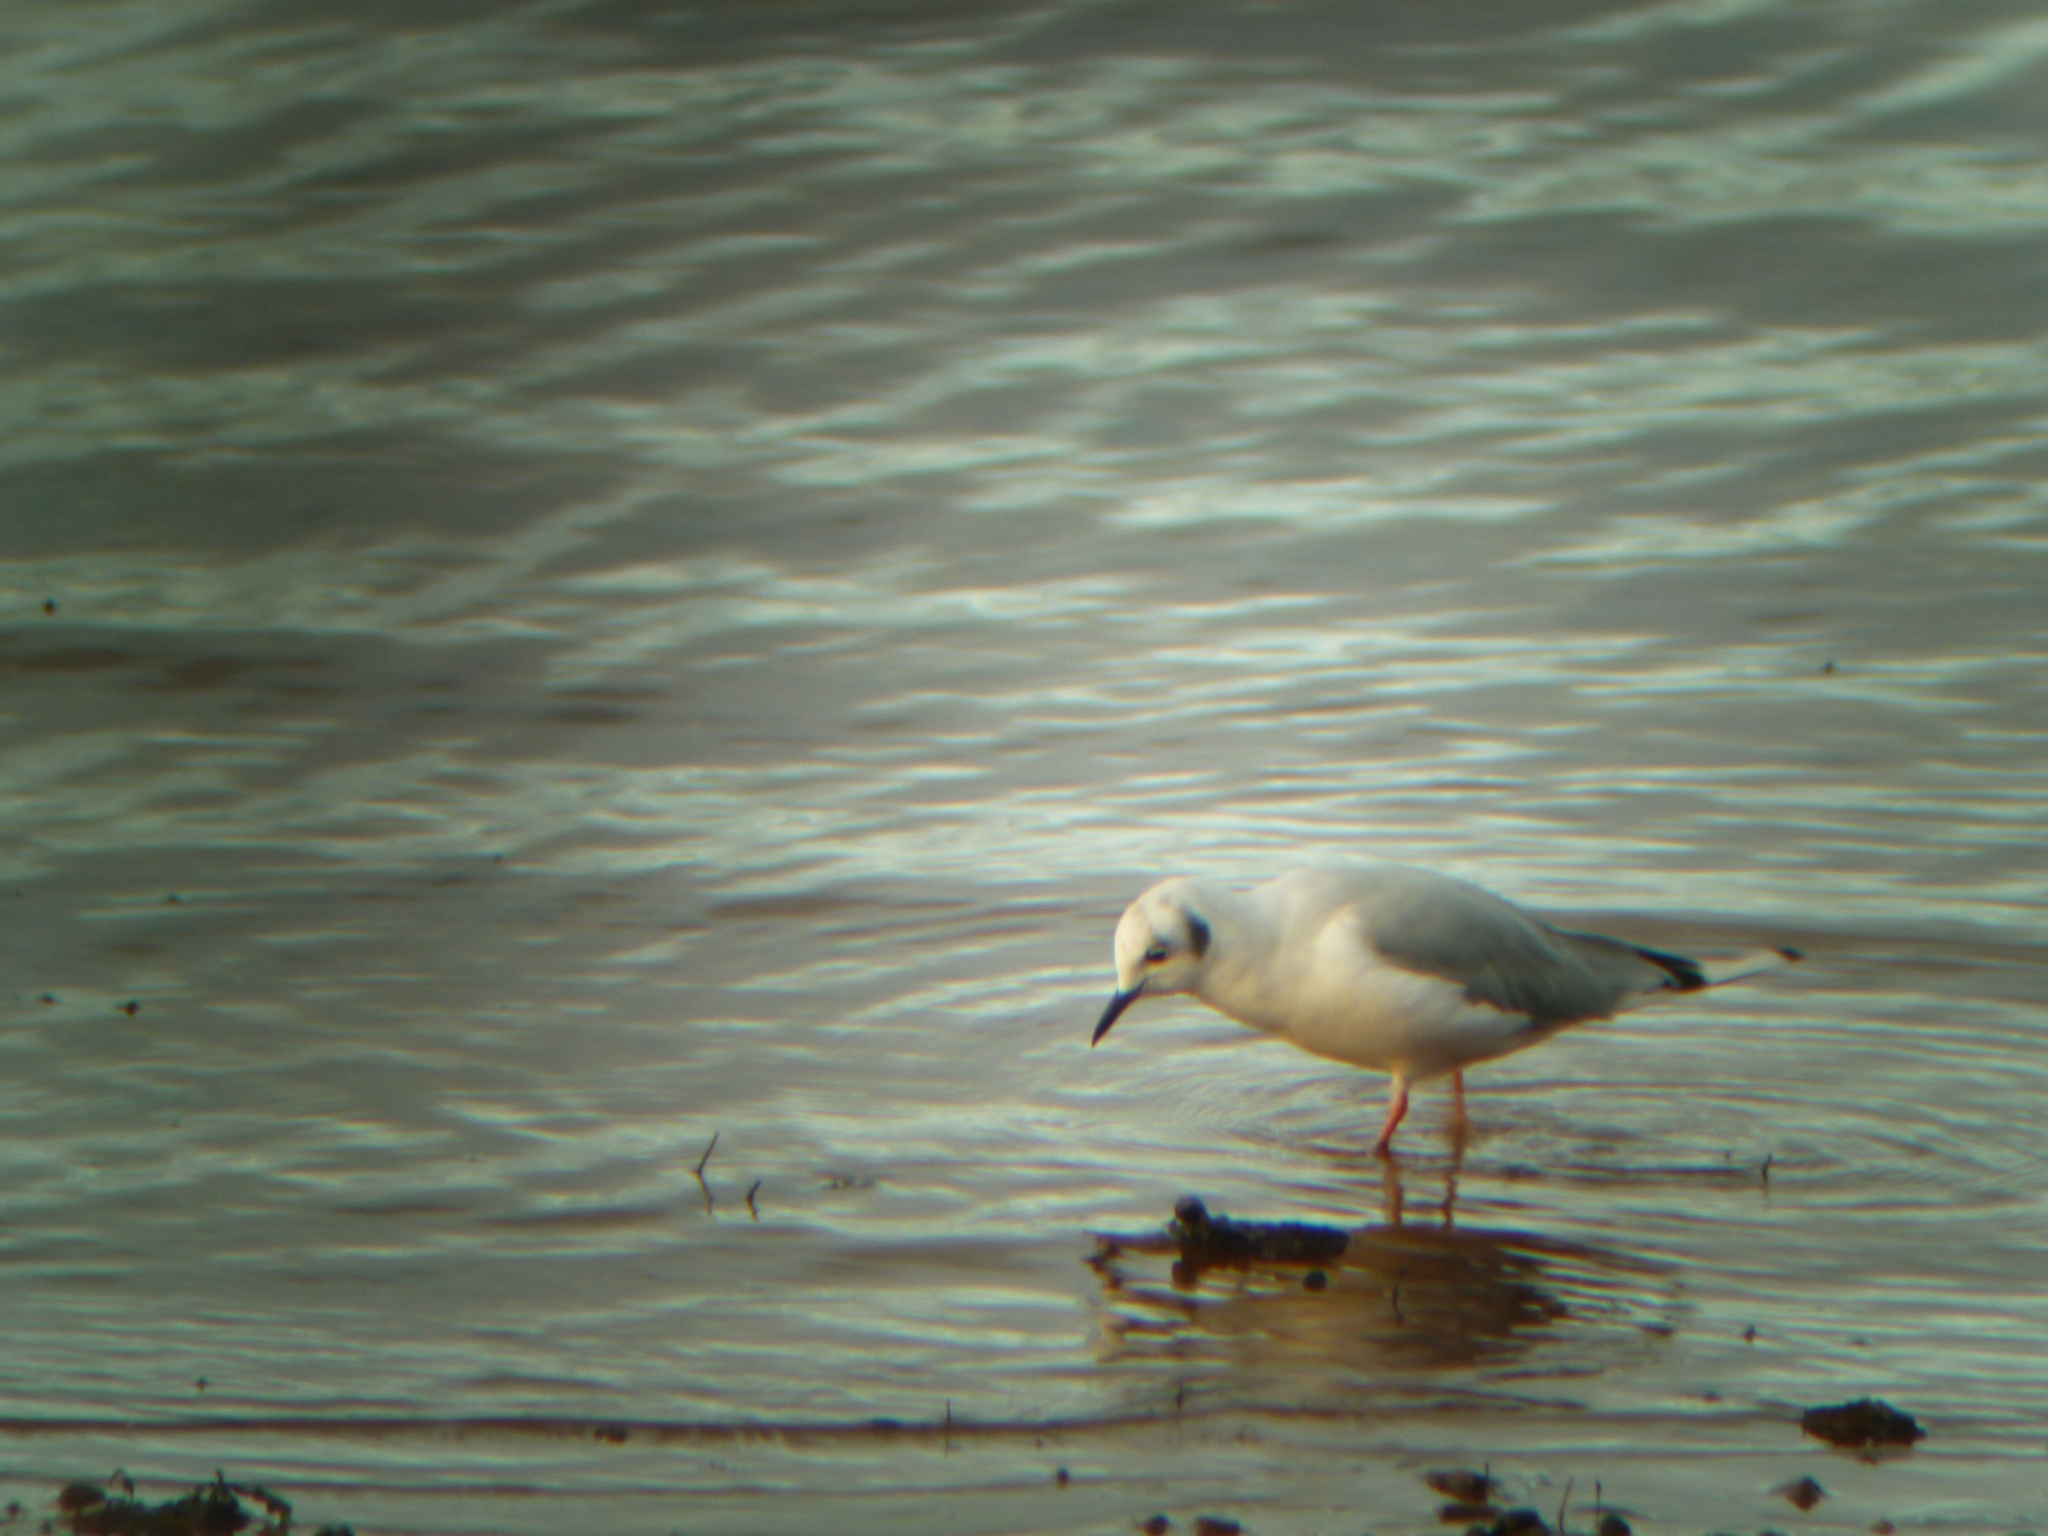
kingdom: Animalia
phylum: Chordata
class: Aves
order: Charadriiformes
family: Laridae
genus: Chroicocephalus
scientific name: Chroicocephalus philadelphia
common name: Bonaparte's gull
